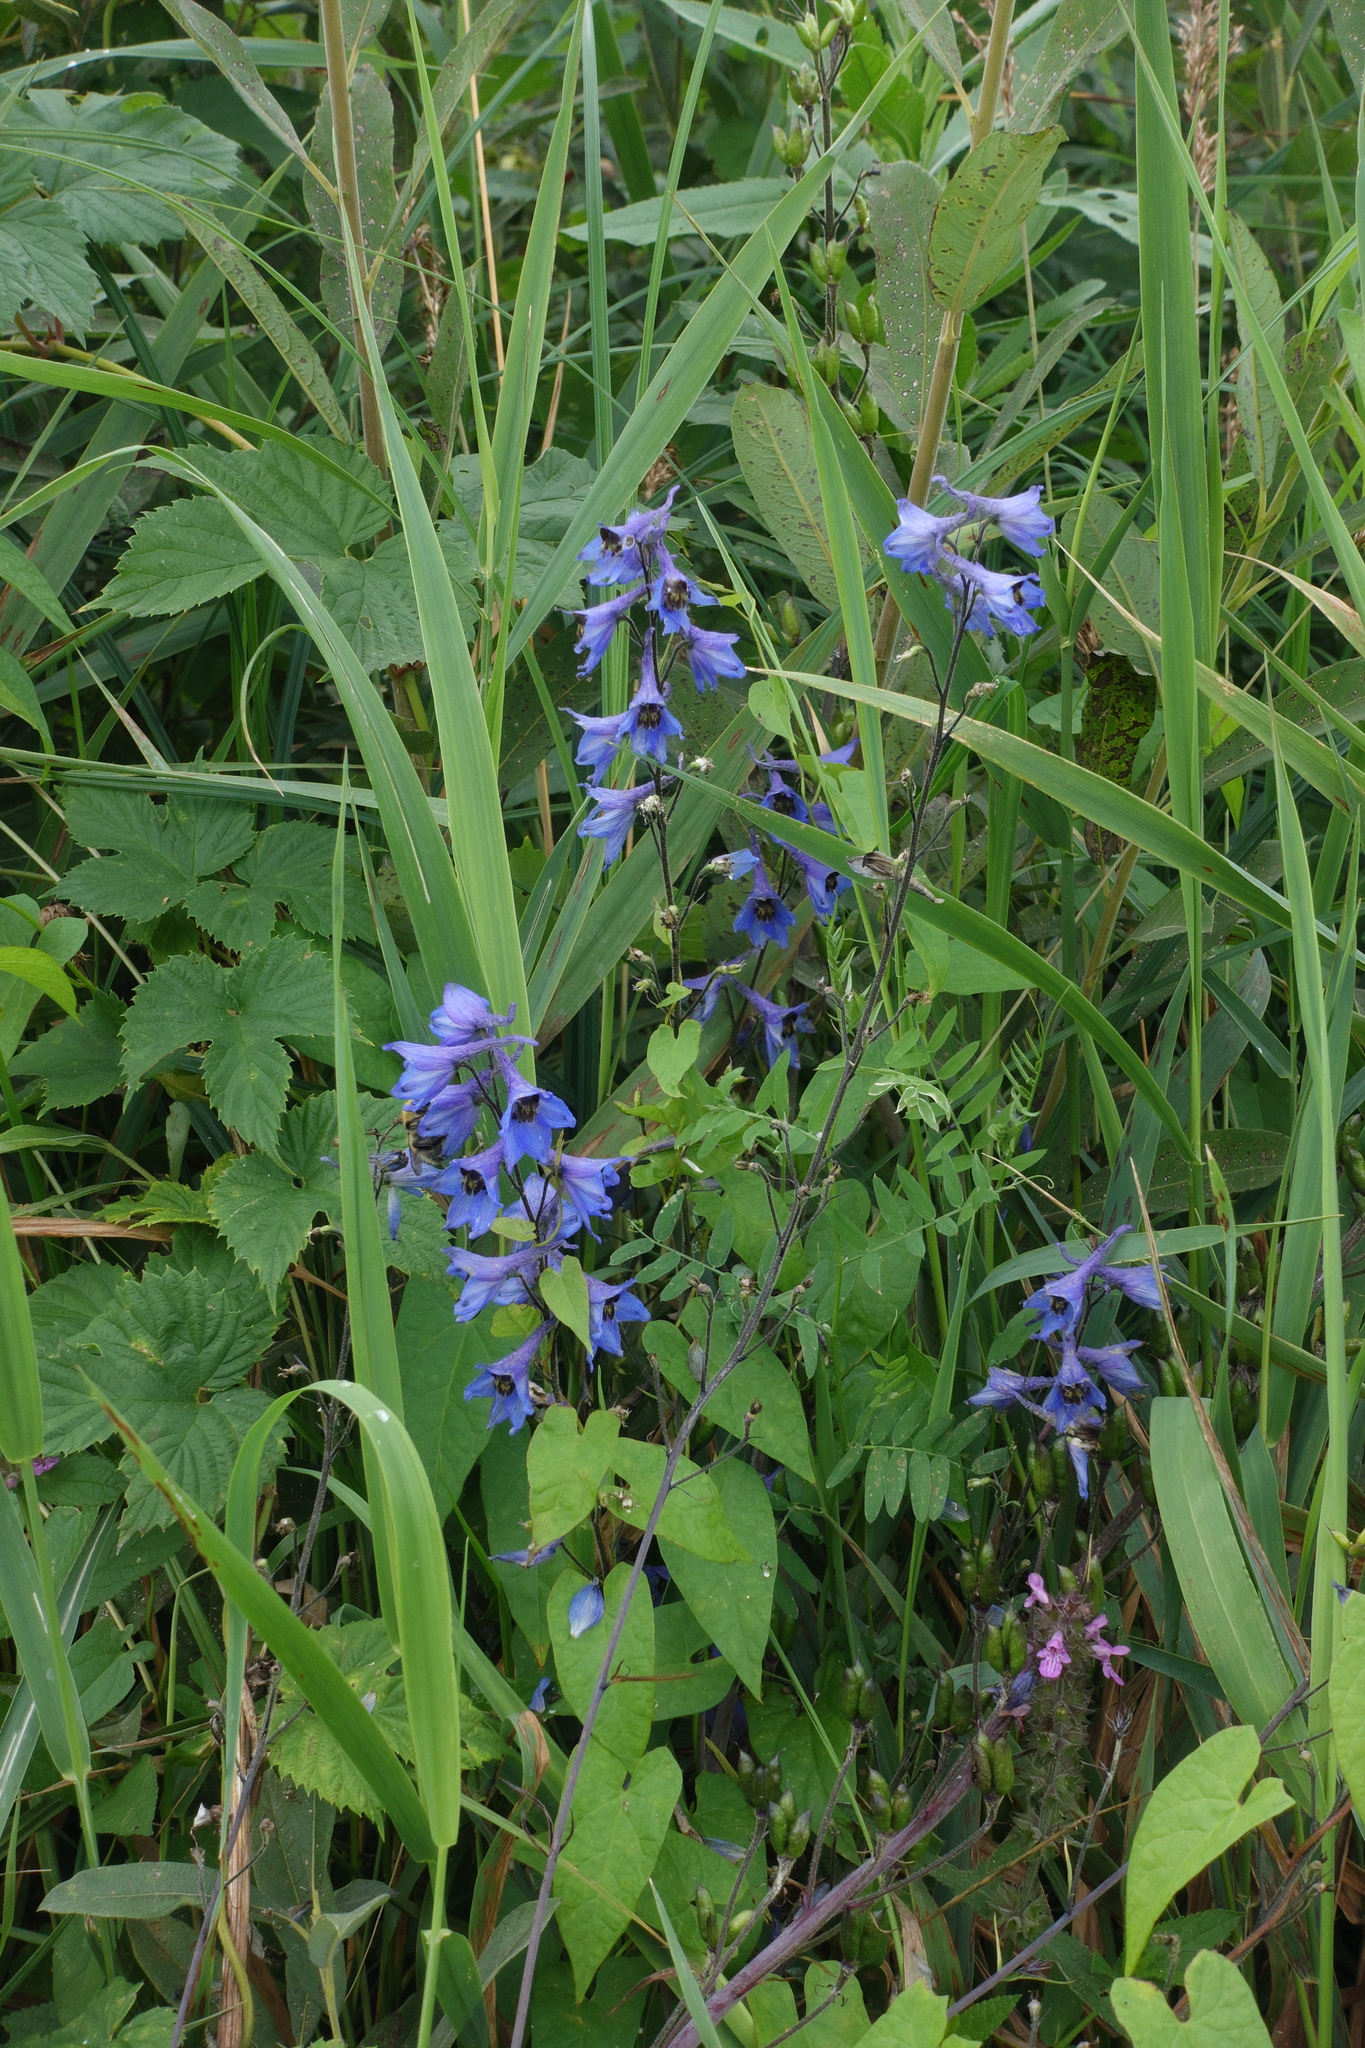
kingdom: Plantae
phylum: Tracheophyta
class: Magnoliopsida
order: Ranunculales
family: Ranunculaceae
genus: Delphinium
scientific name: Delphinium elatum
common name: Candle larkspur
